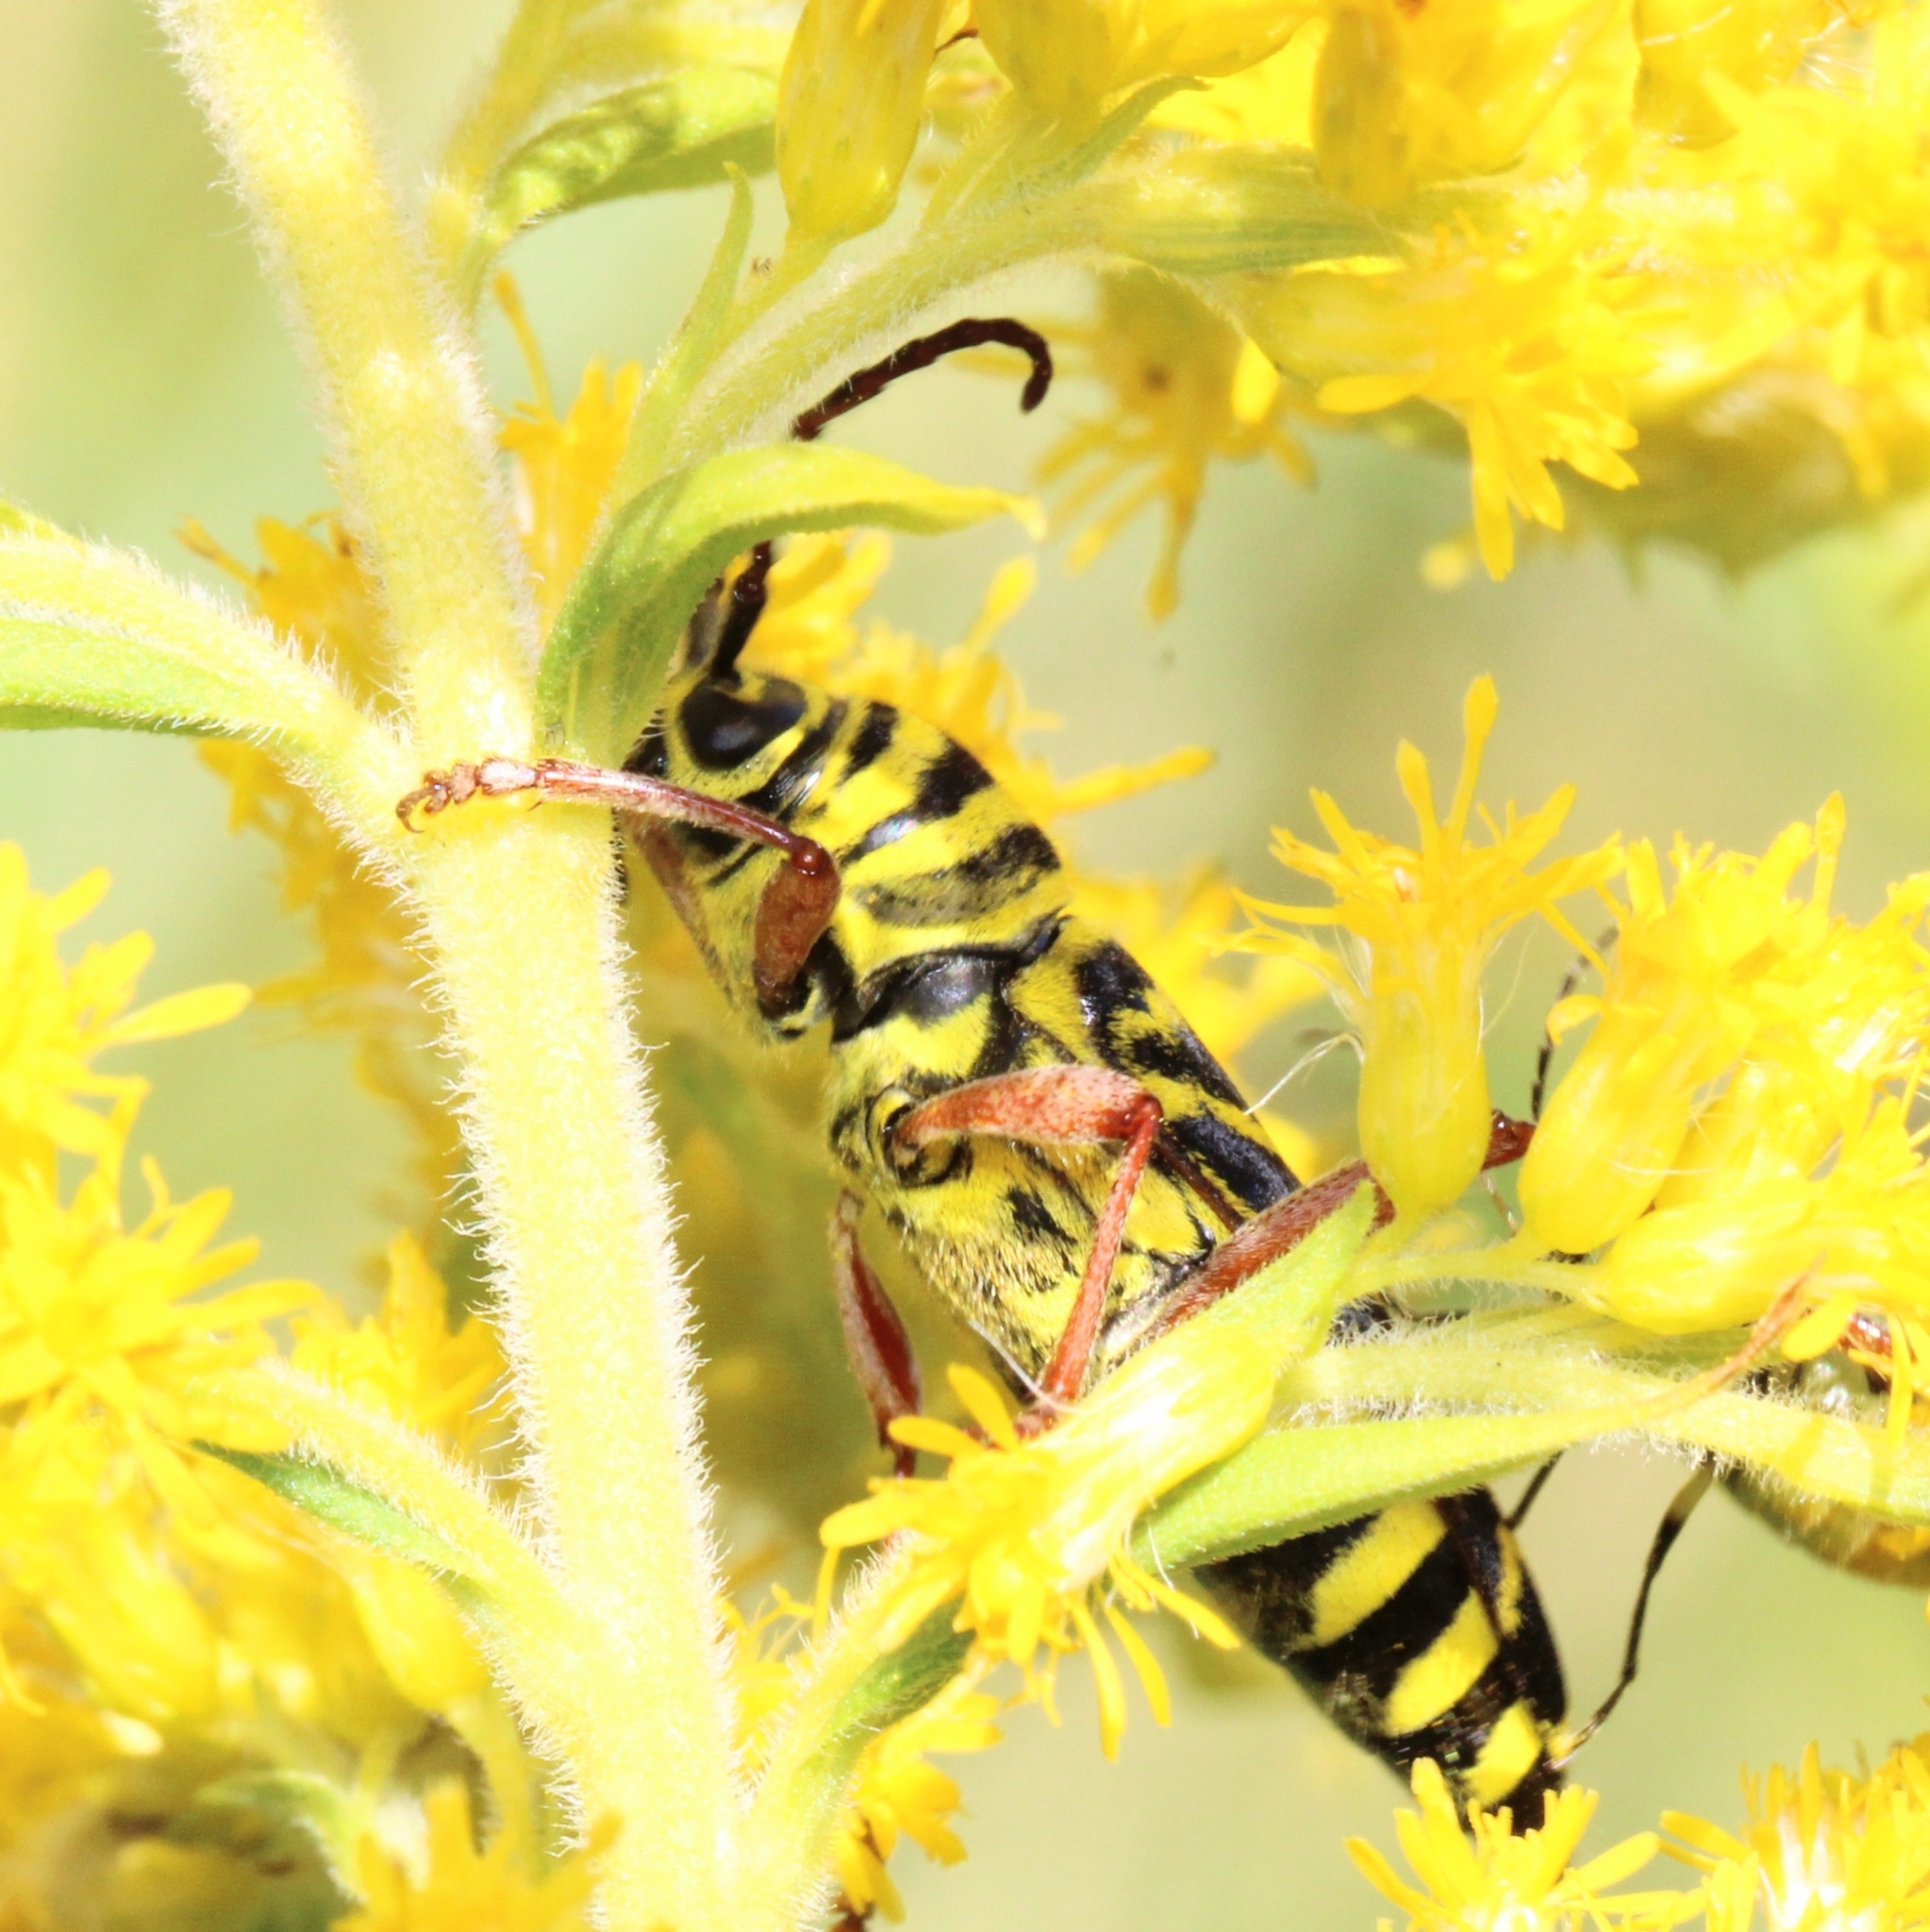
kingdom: Animalia
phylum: Arthropoda
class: Insecta
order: Coleoptera
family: Cerambycidae
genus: Megacyllene
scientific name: Megacyllene robiniae
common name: Locust borer
